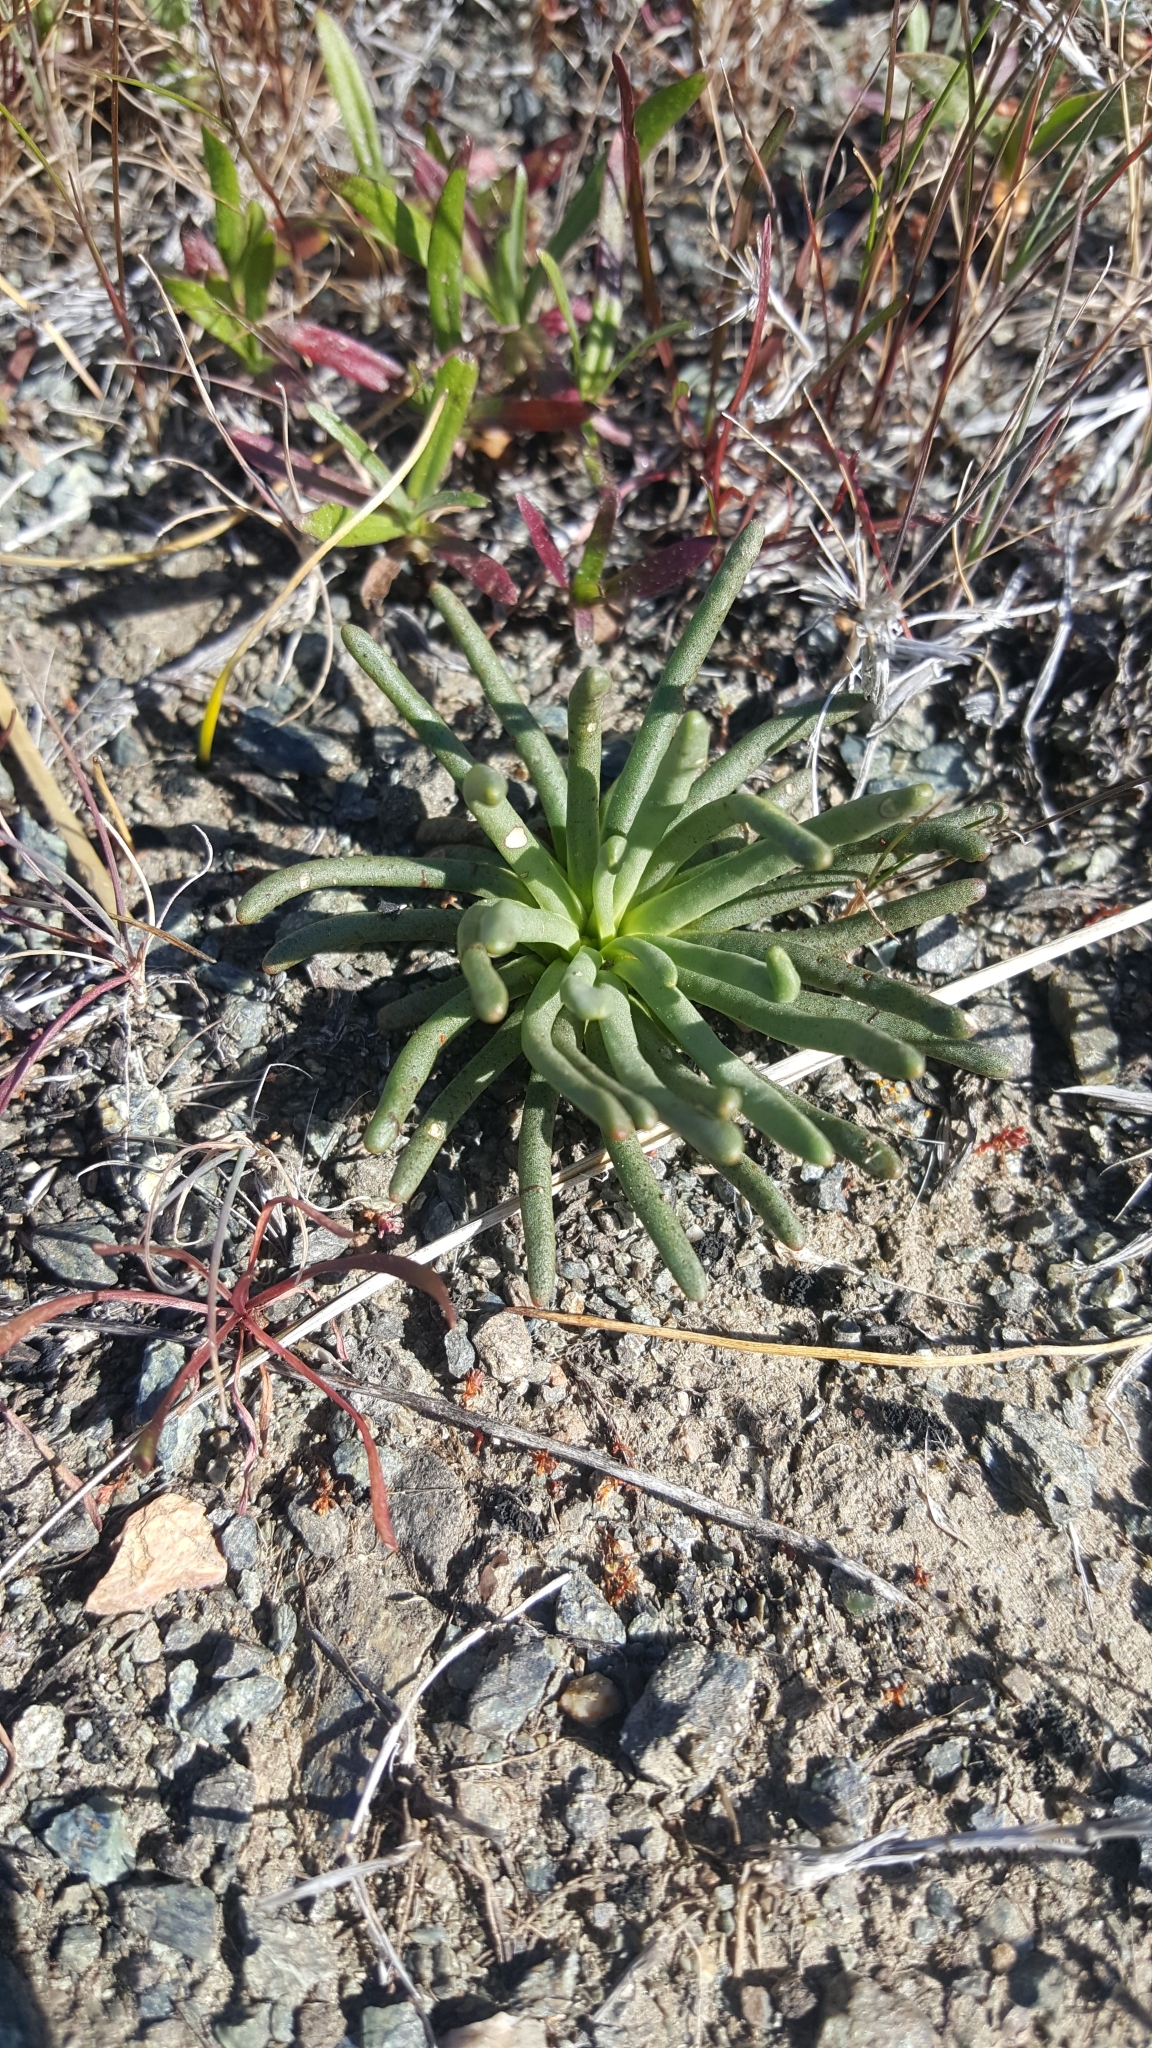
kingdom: Plantae
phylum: Tracheophyta
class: Magnoliopsida
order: Caryophyllales
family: Montiaceae
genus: Lewisia
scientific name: Lewisia rediviva
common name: Bitter-root
